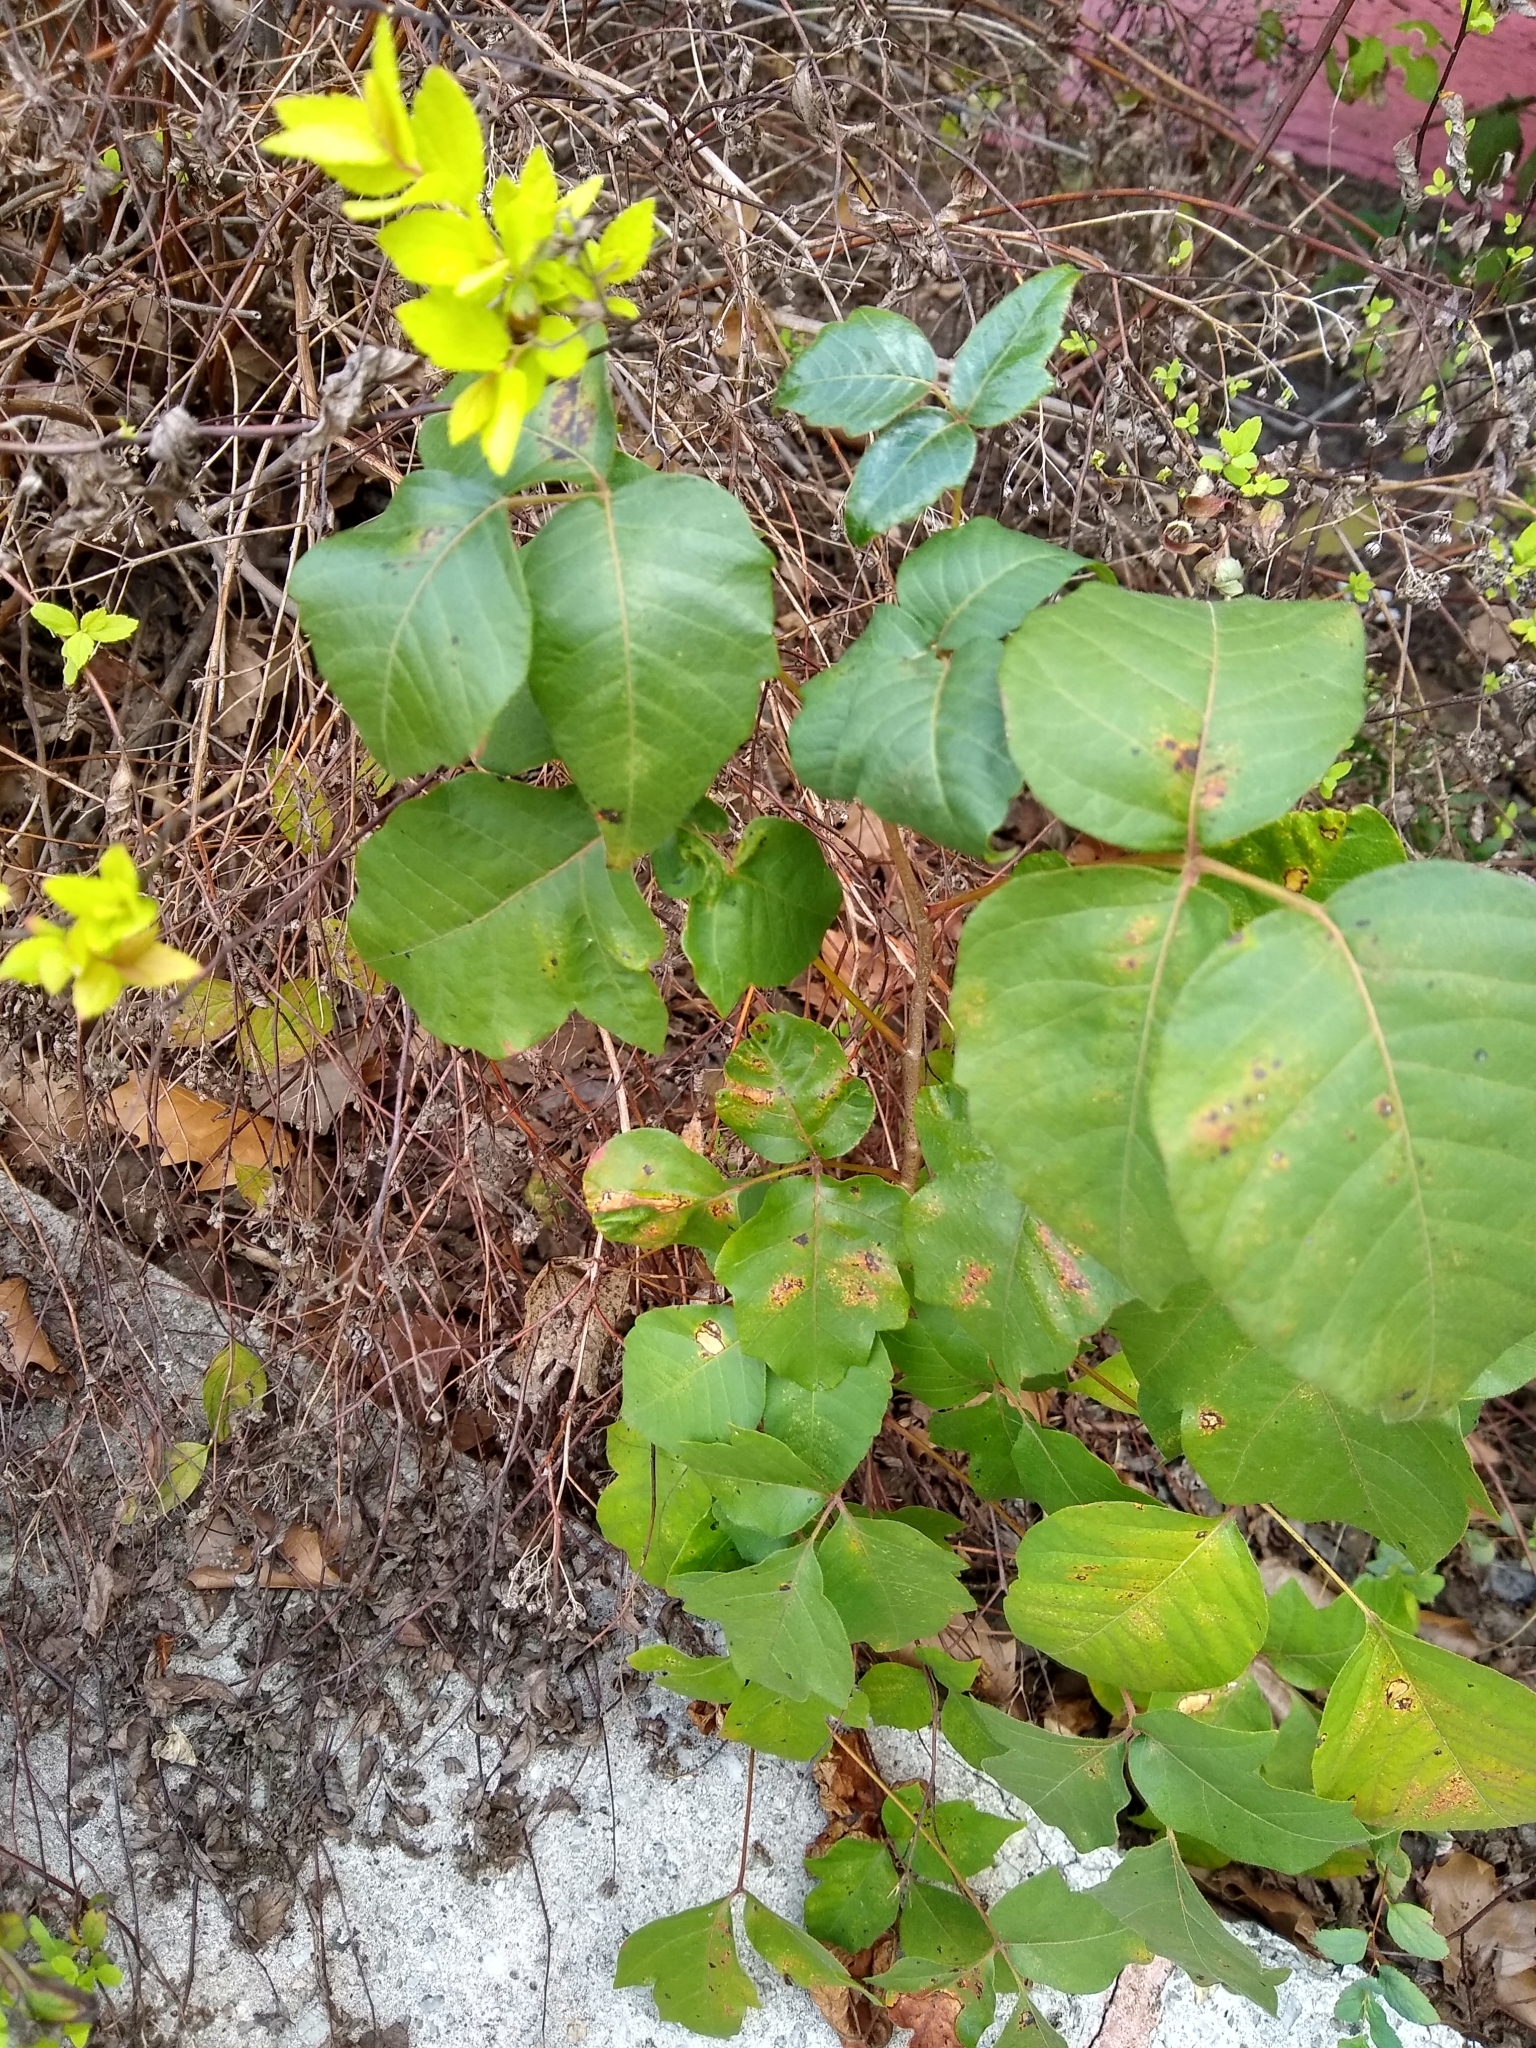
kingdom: Plantae
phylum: Tracheophyta
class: Magnoliopsida
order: Sapindales
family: Anacardiaceae
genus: Toxicodendron
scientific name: Toxicodendron radicans
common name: Poison ivy
